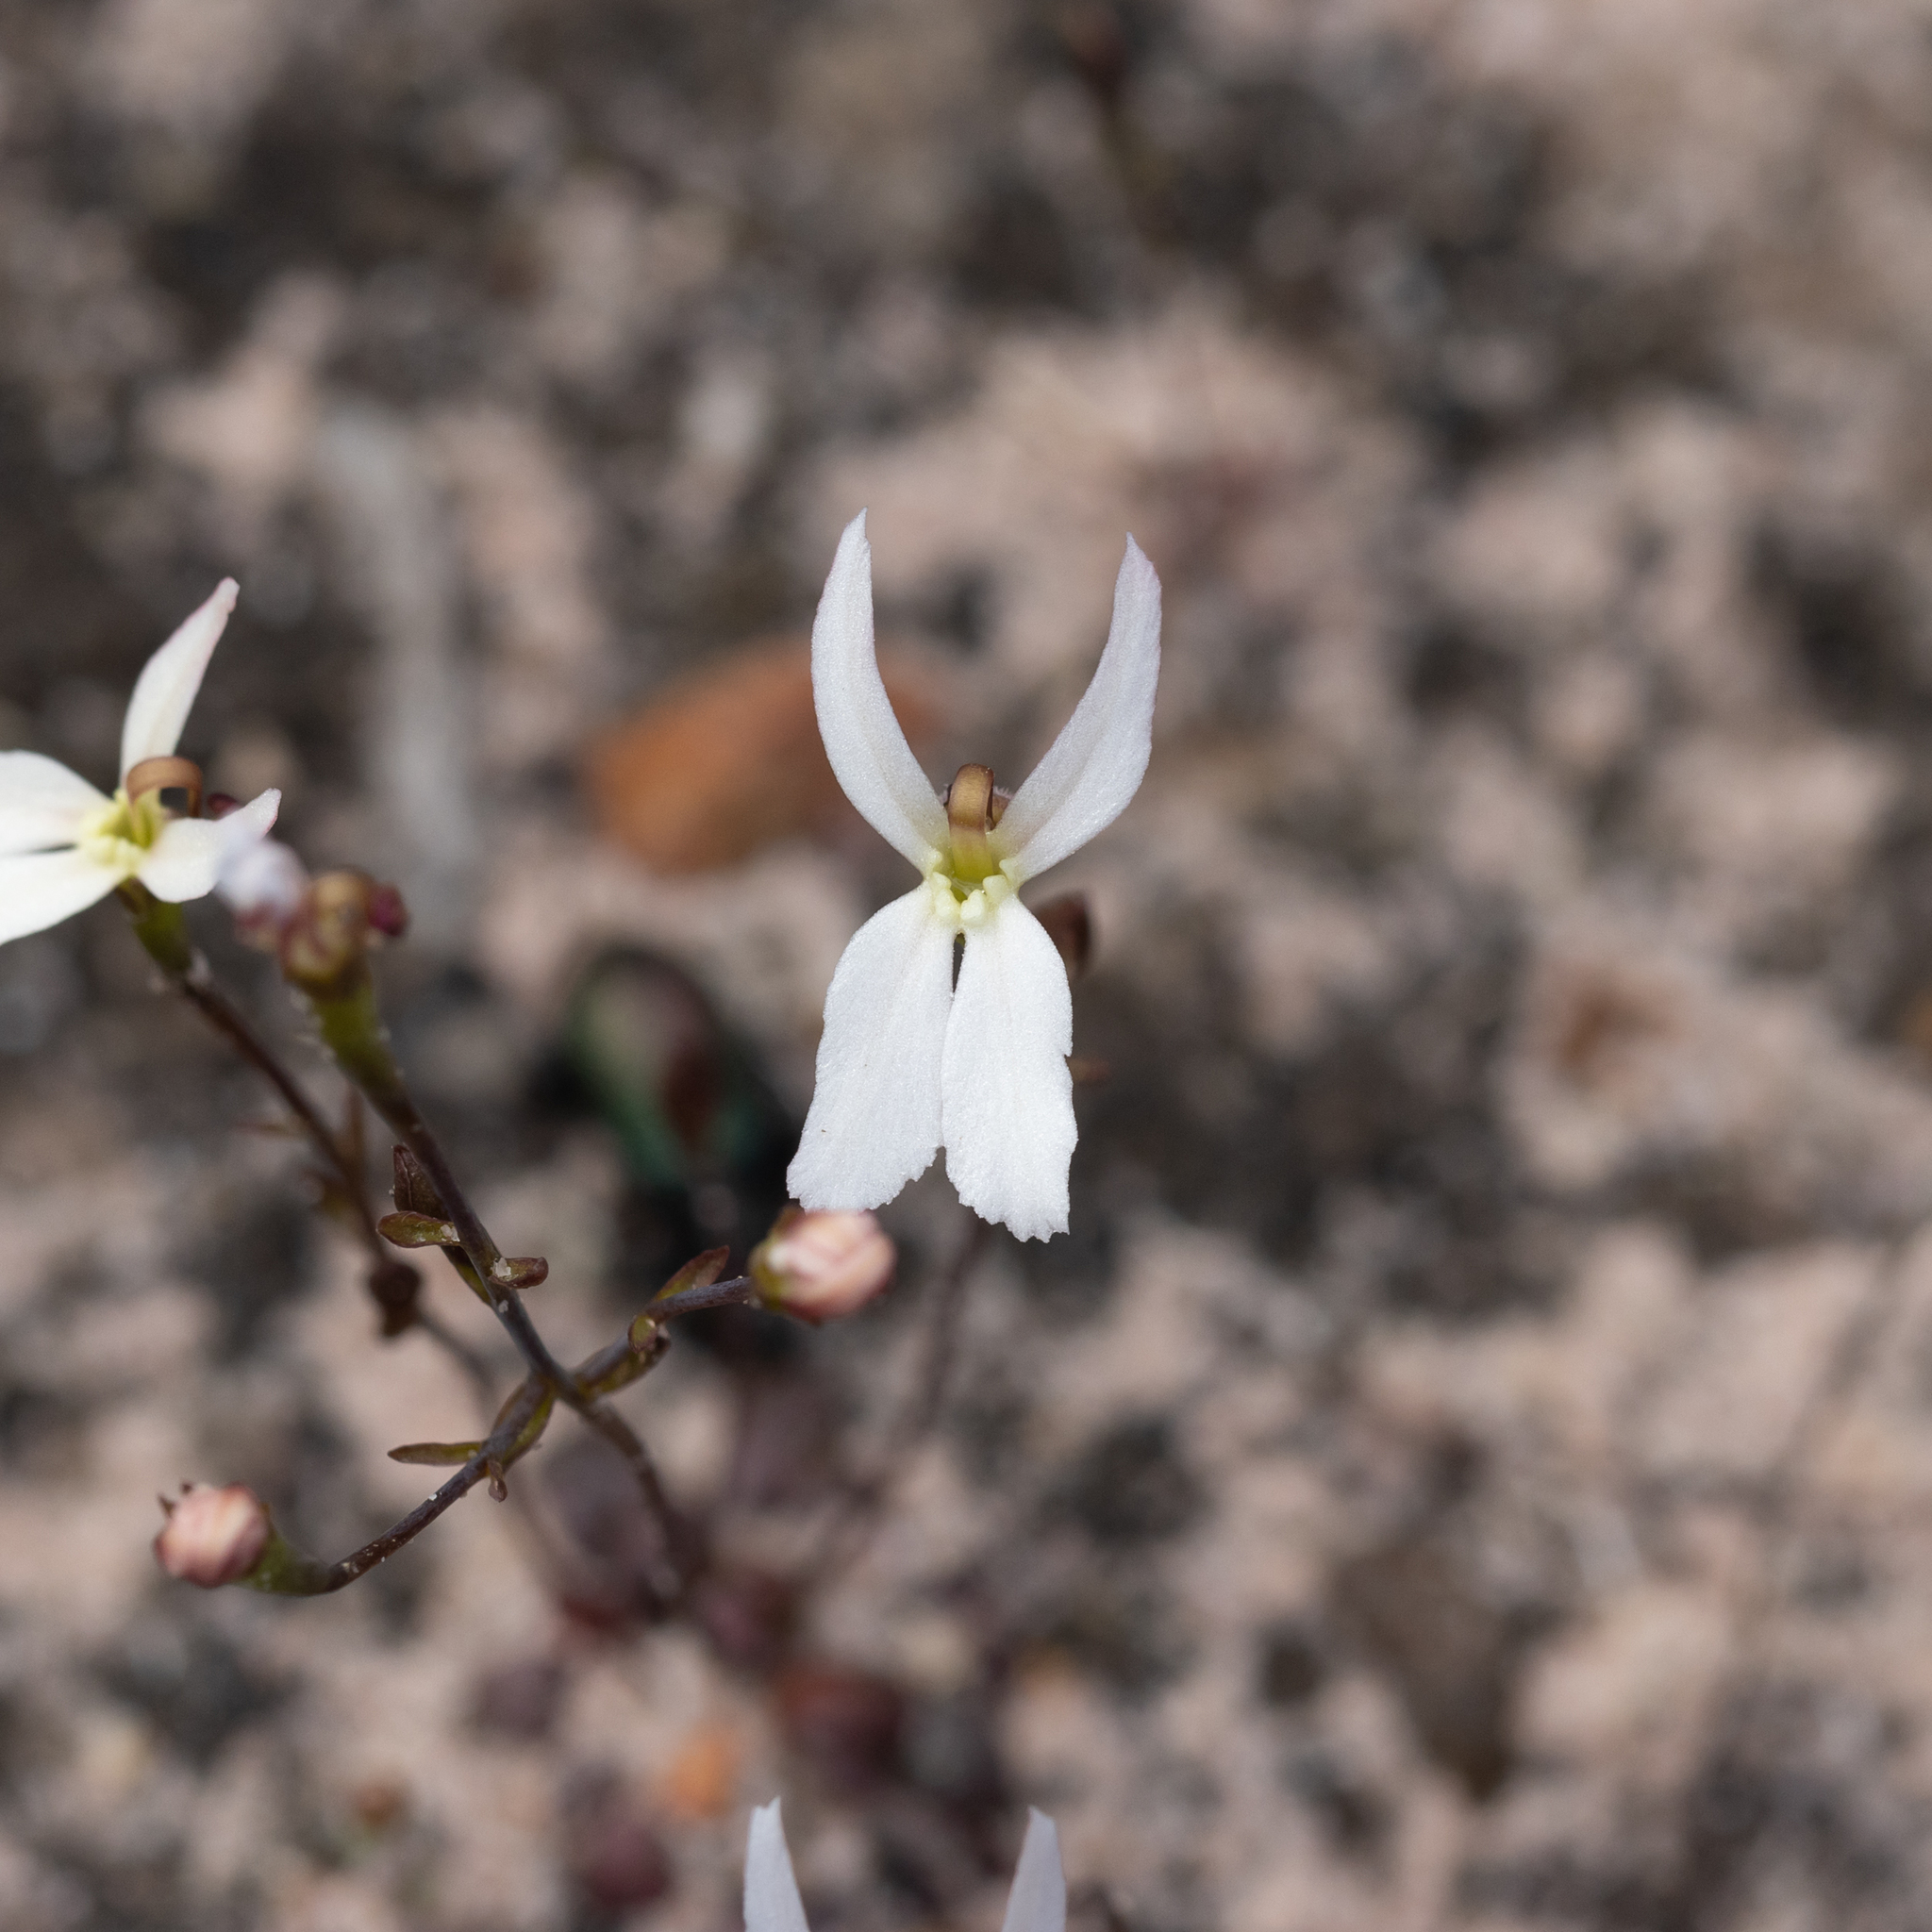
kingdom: Plantae
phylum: Tracheophyta
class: Magnoliopsida
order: Asterales
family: Stylidiaceae
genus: Stylidium
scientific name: Stylidium petiolare
